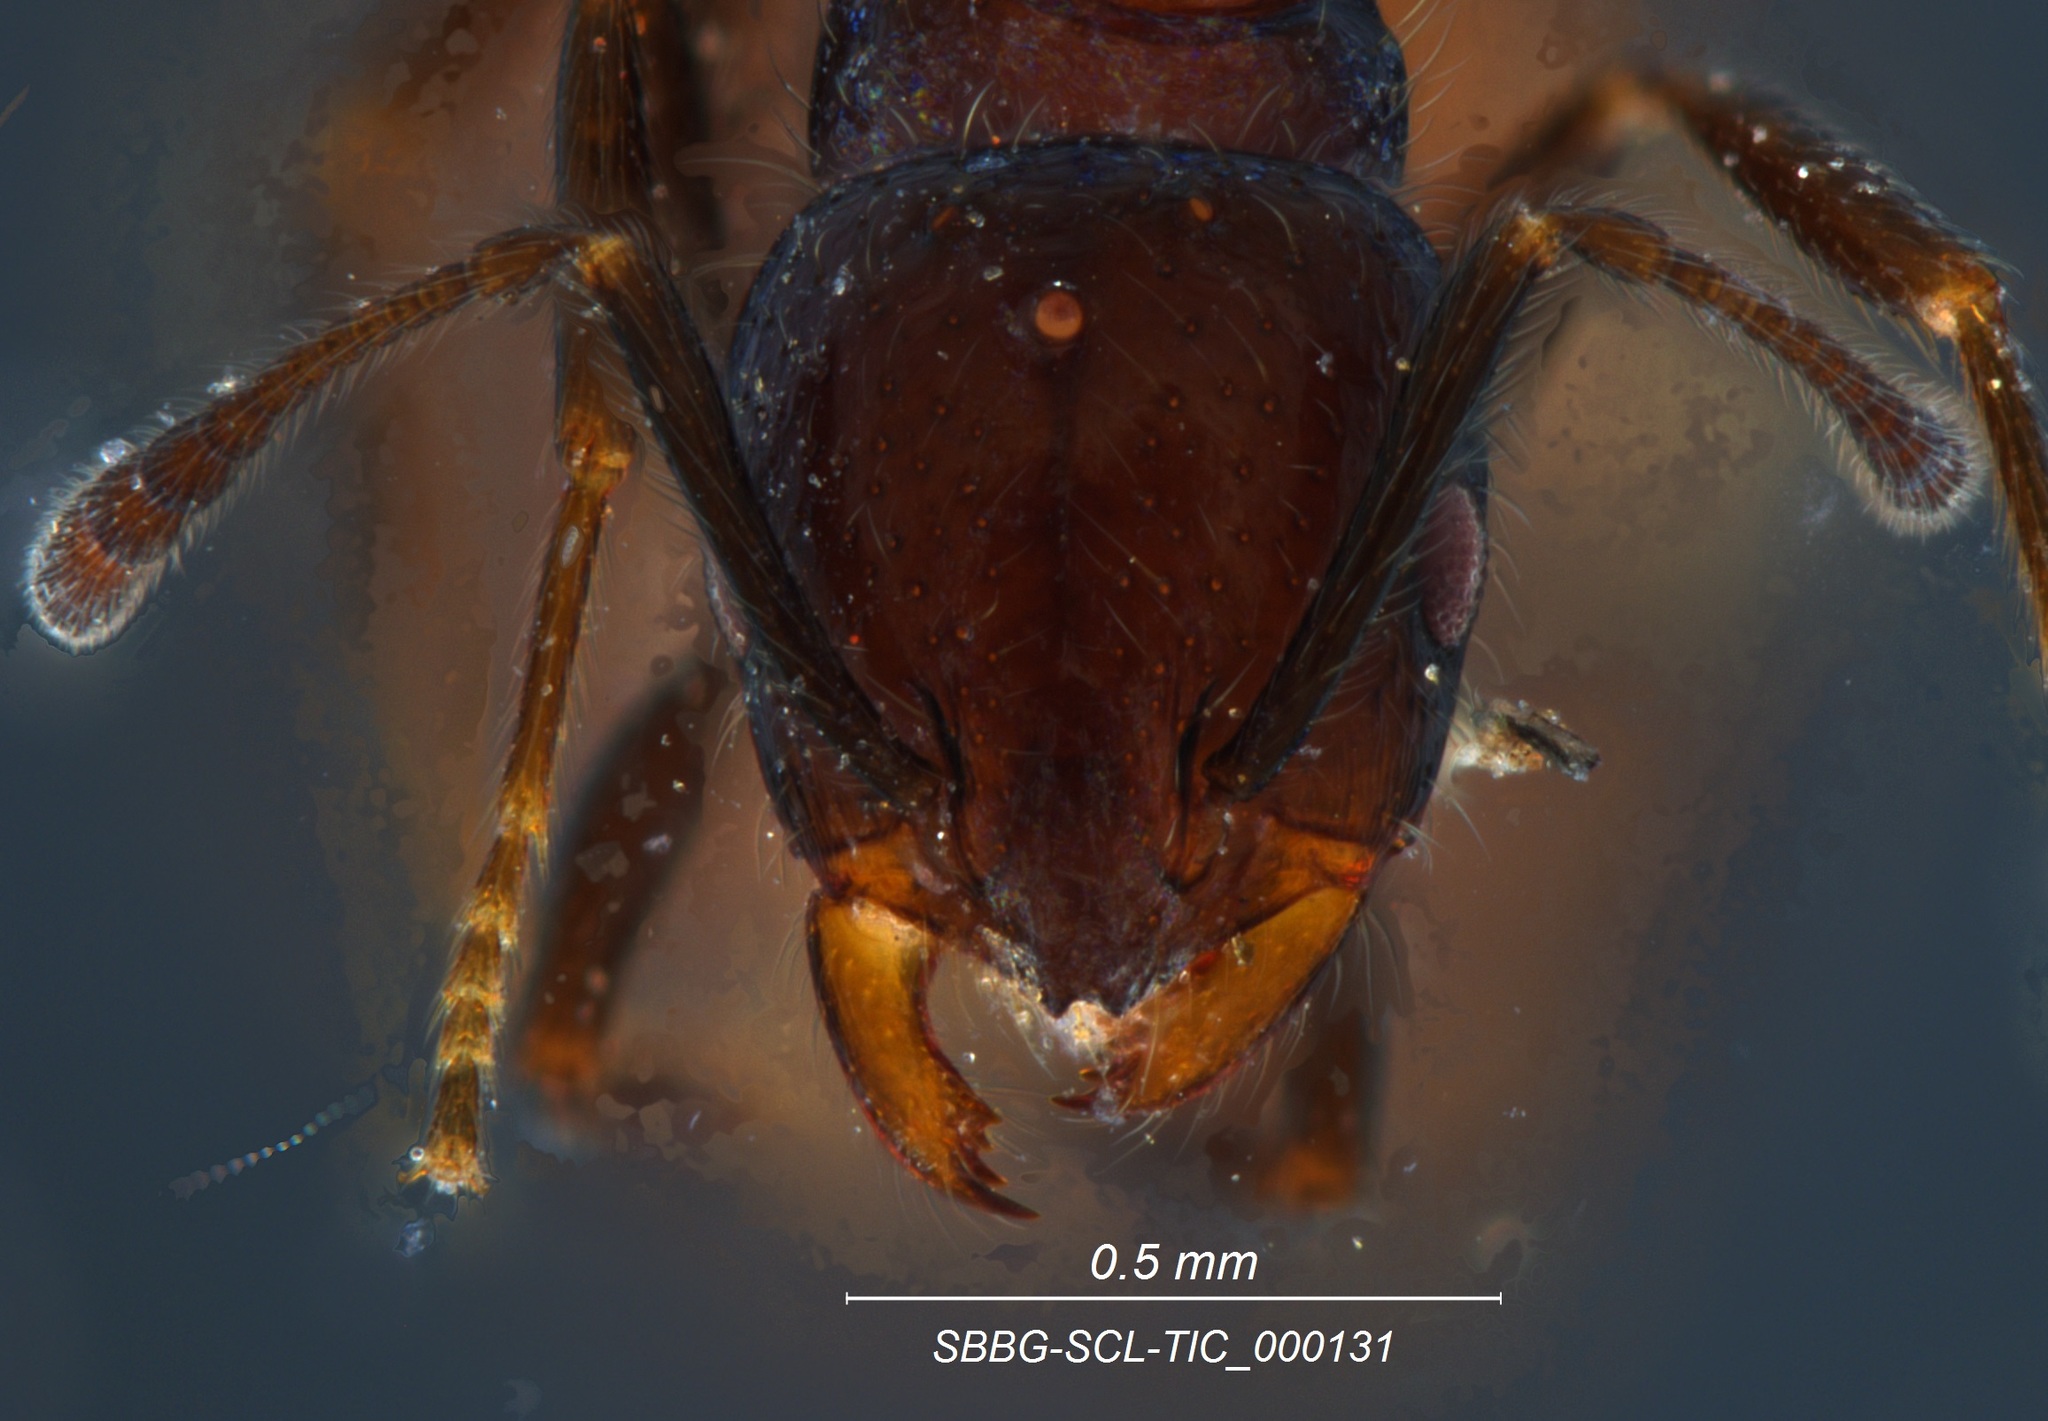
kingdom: Animalia
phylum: Arthropoda
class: Insecta
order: Hymenoptera
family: Formicidae
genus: Monomorium
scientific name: Monomorium ergatogyna
